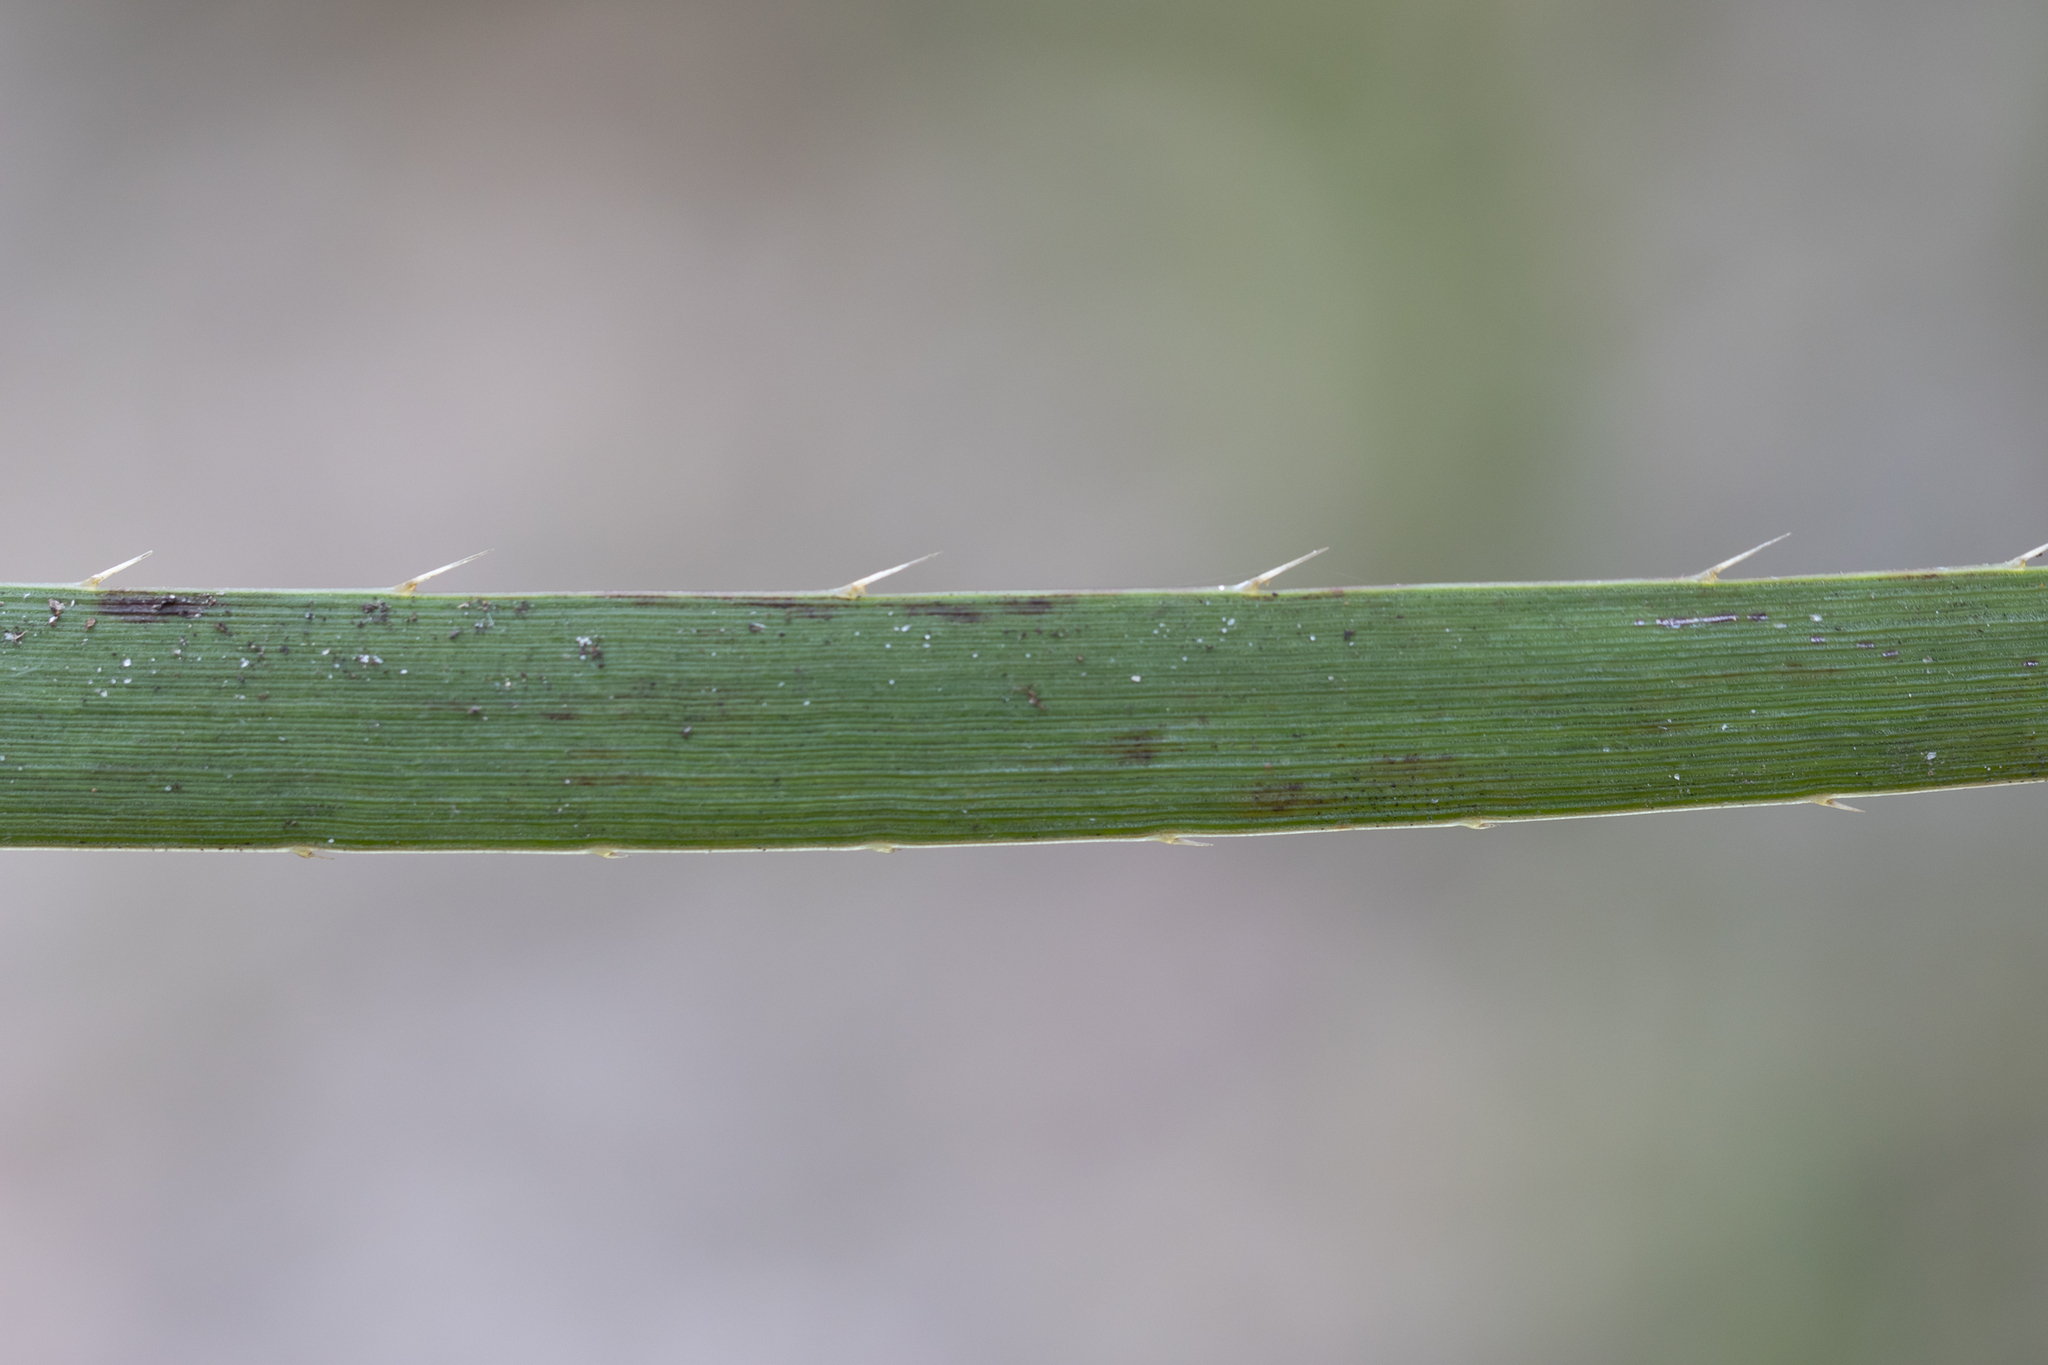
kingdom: Plantae
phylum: Tracheophyta
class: Liliopsida
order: Commelinales
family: Haemodoraceae
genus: Conostylis
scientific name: Conostylis aculeata
